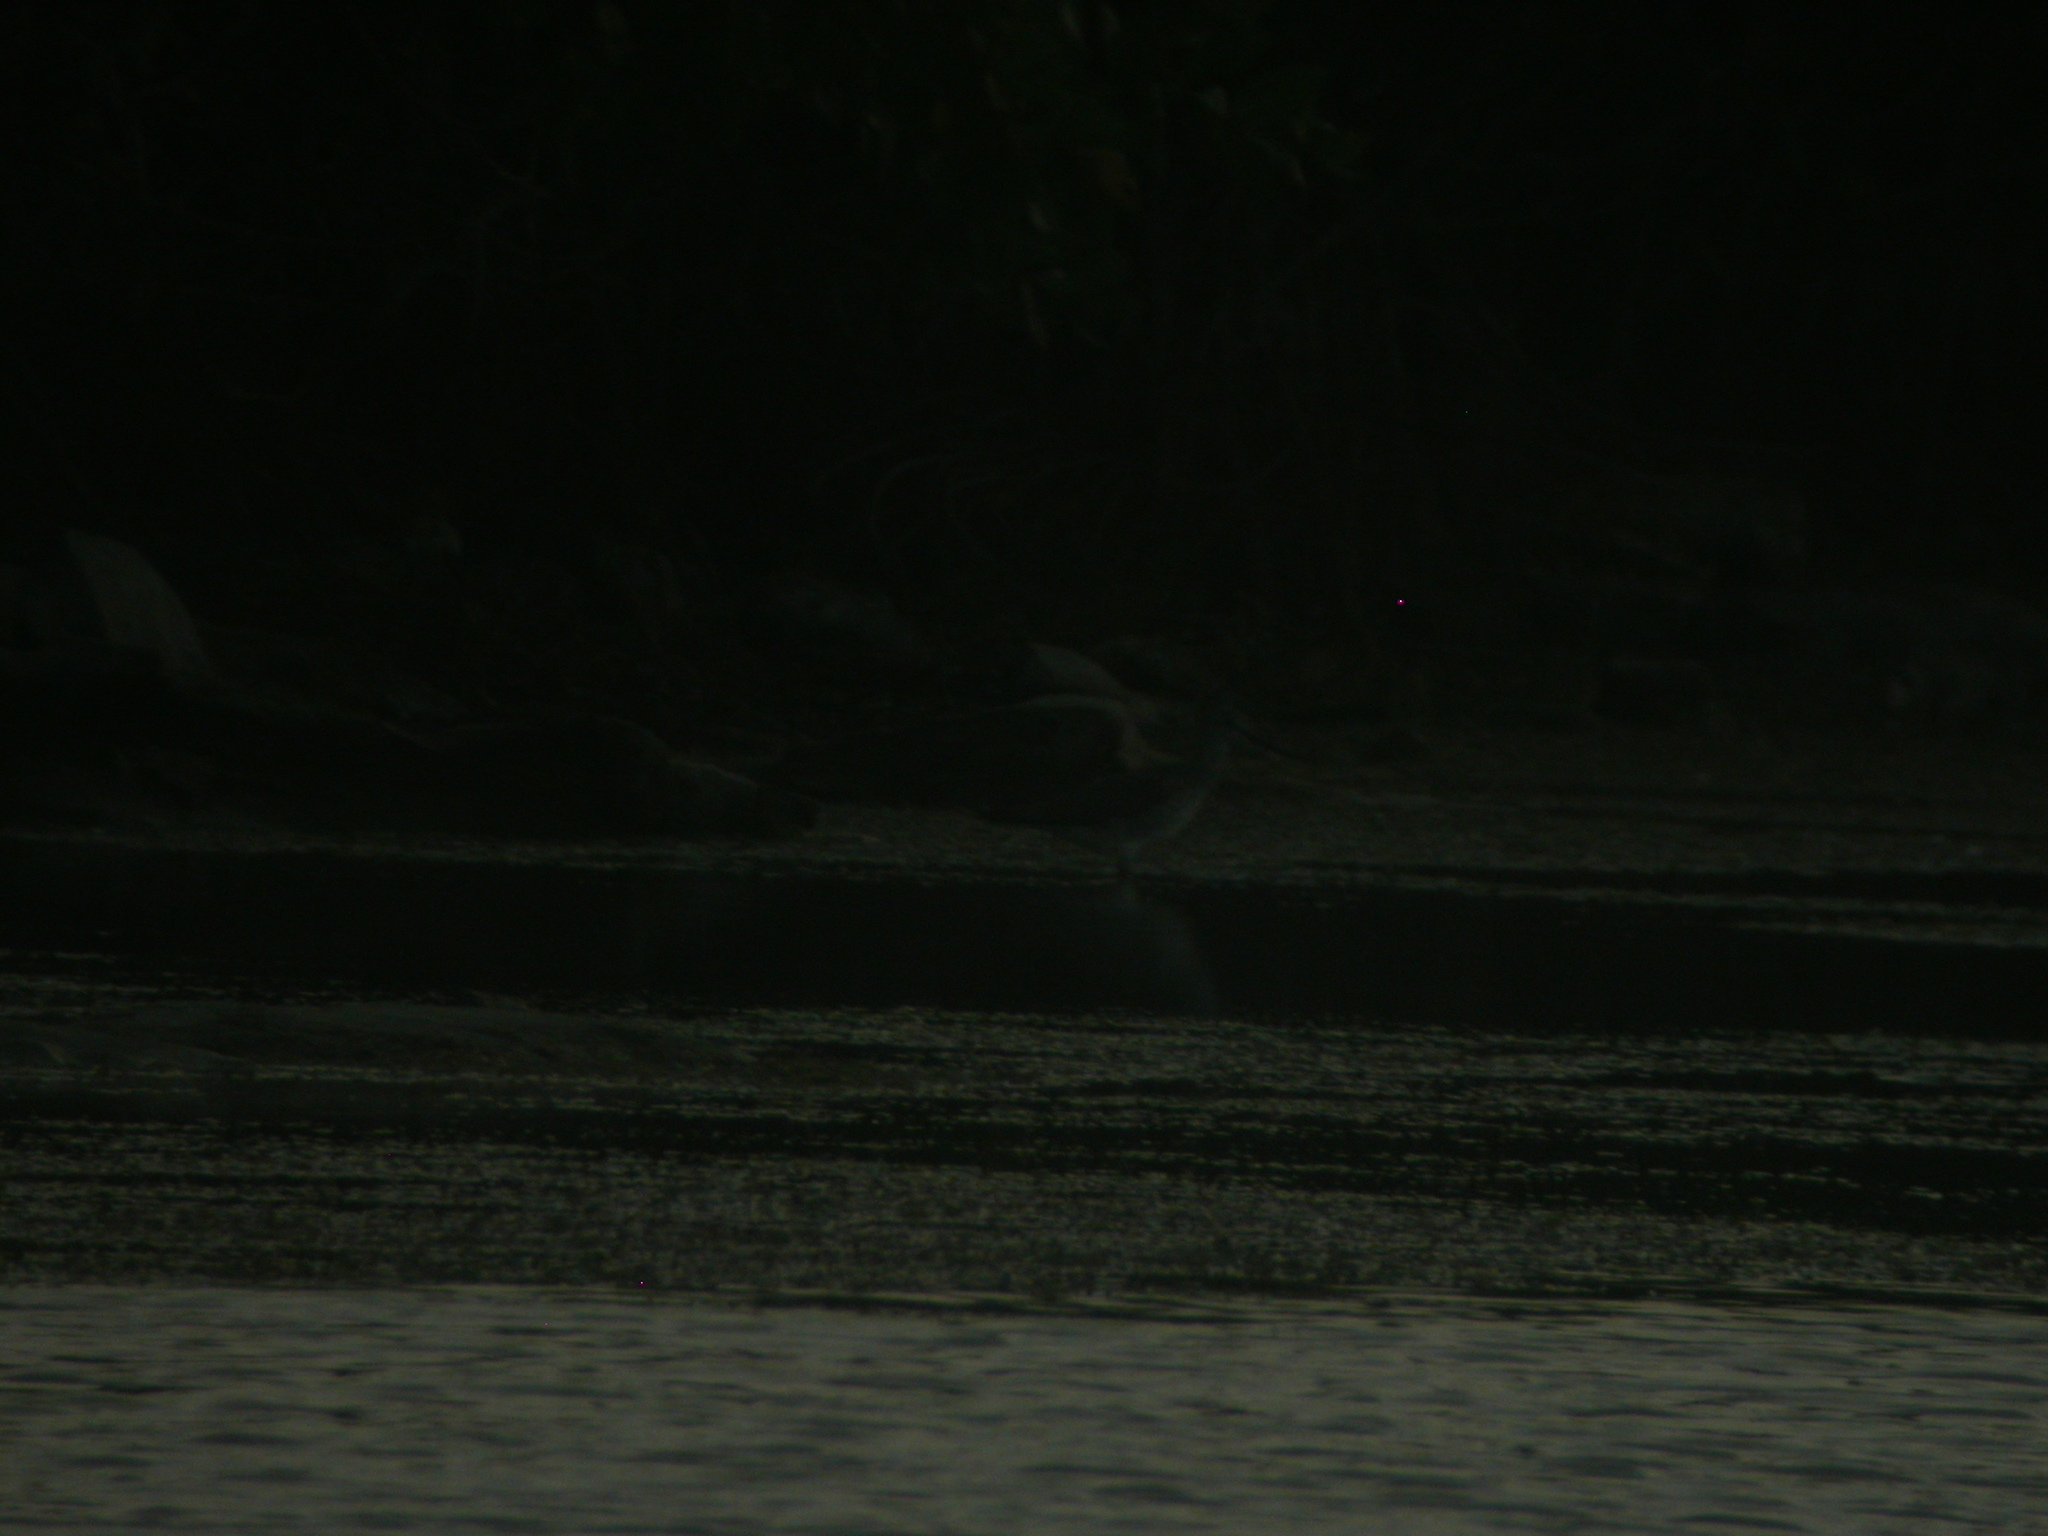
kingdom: Animalia
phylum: Chordata
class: Aves
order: Charadriiformes
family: Scolopacidae
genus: Tringa
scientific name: Tringa flavipes
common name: Lesser yellowlegs
